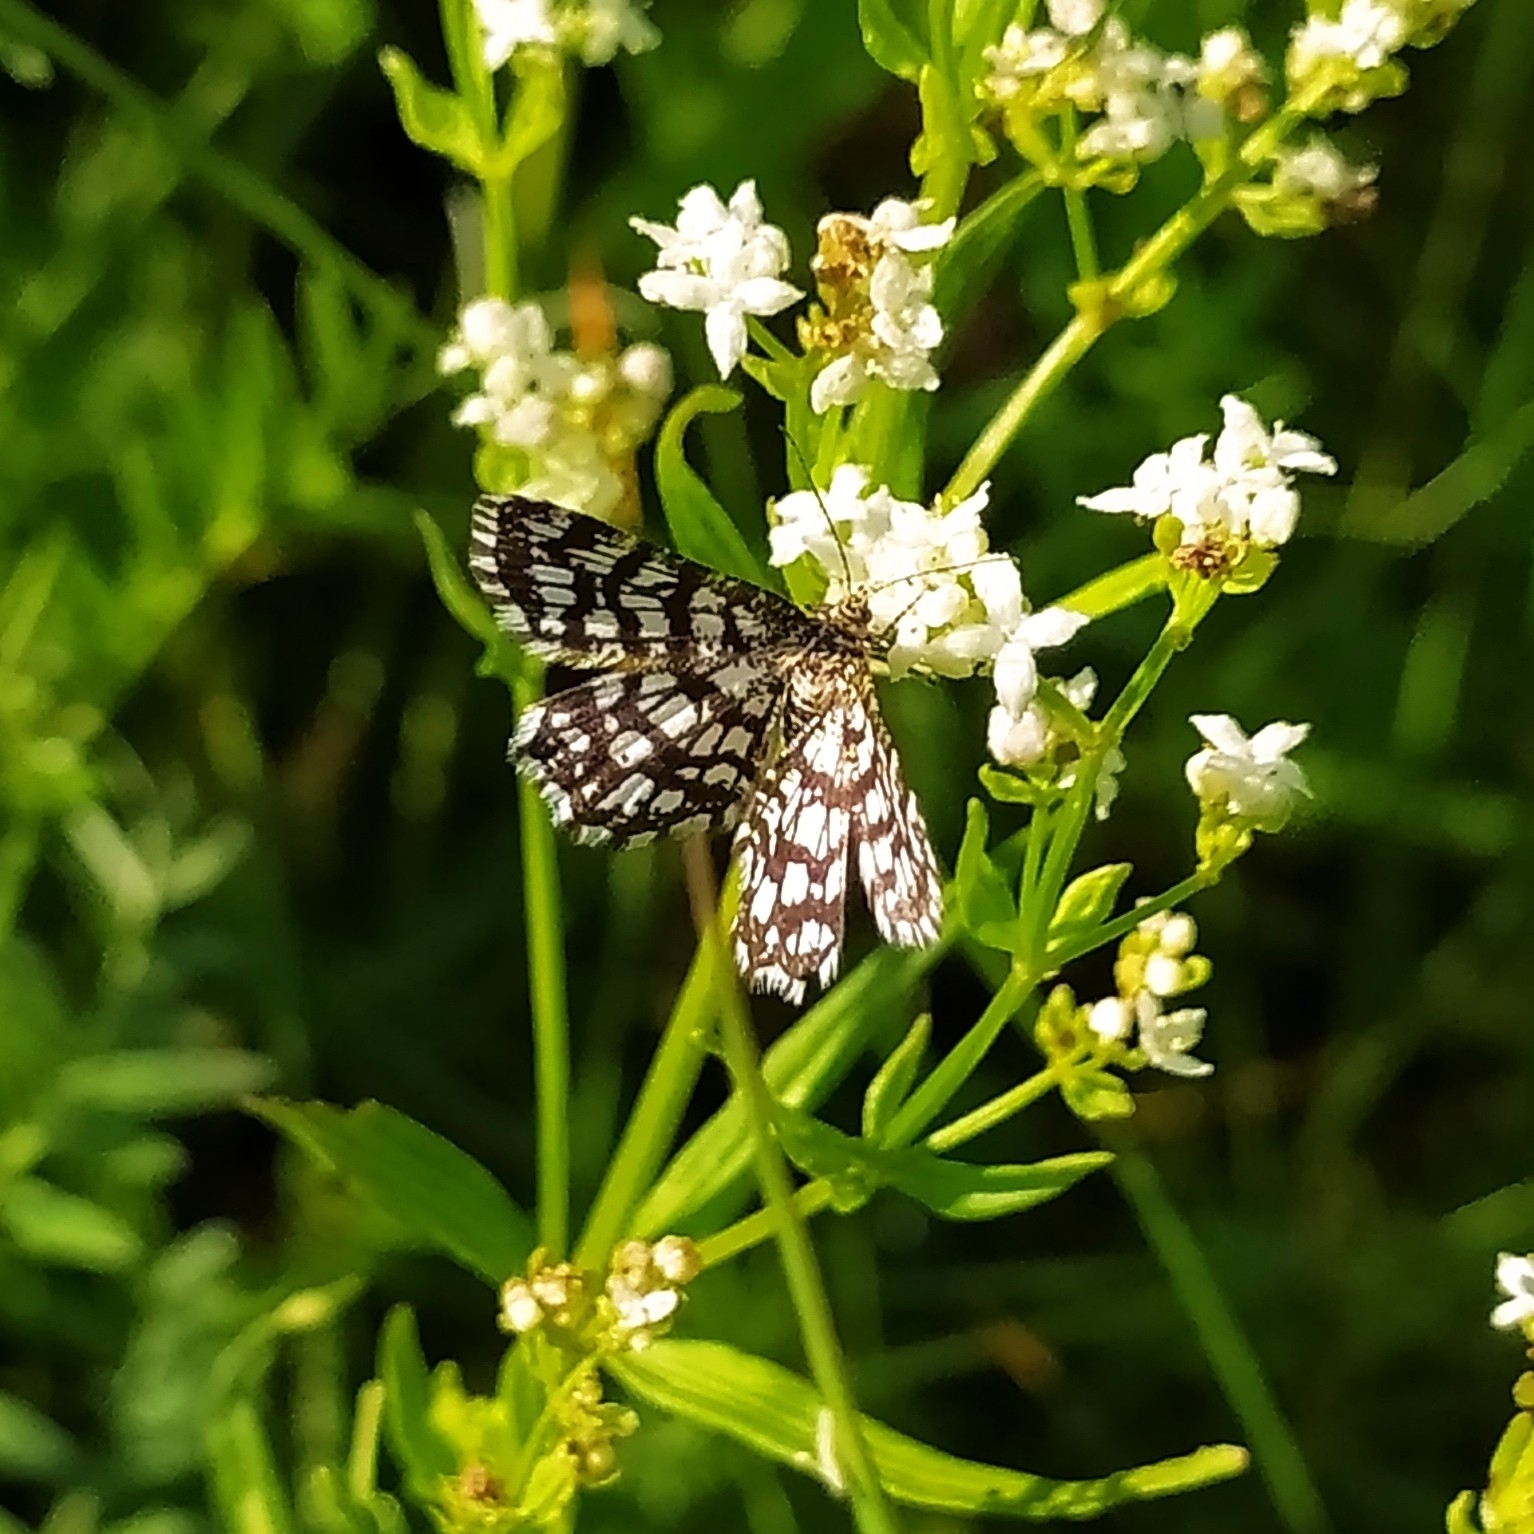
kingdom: Animalia
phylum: Arthropoda
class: Insecta
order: Lepidoptera
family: Geometridae
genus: Chiasmia
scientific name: Chiasmia clathrata
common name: Latticed heath
